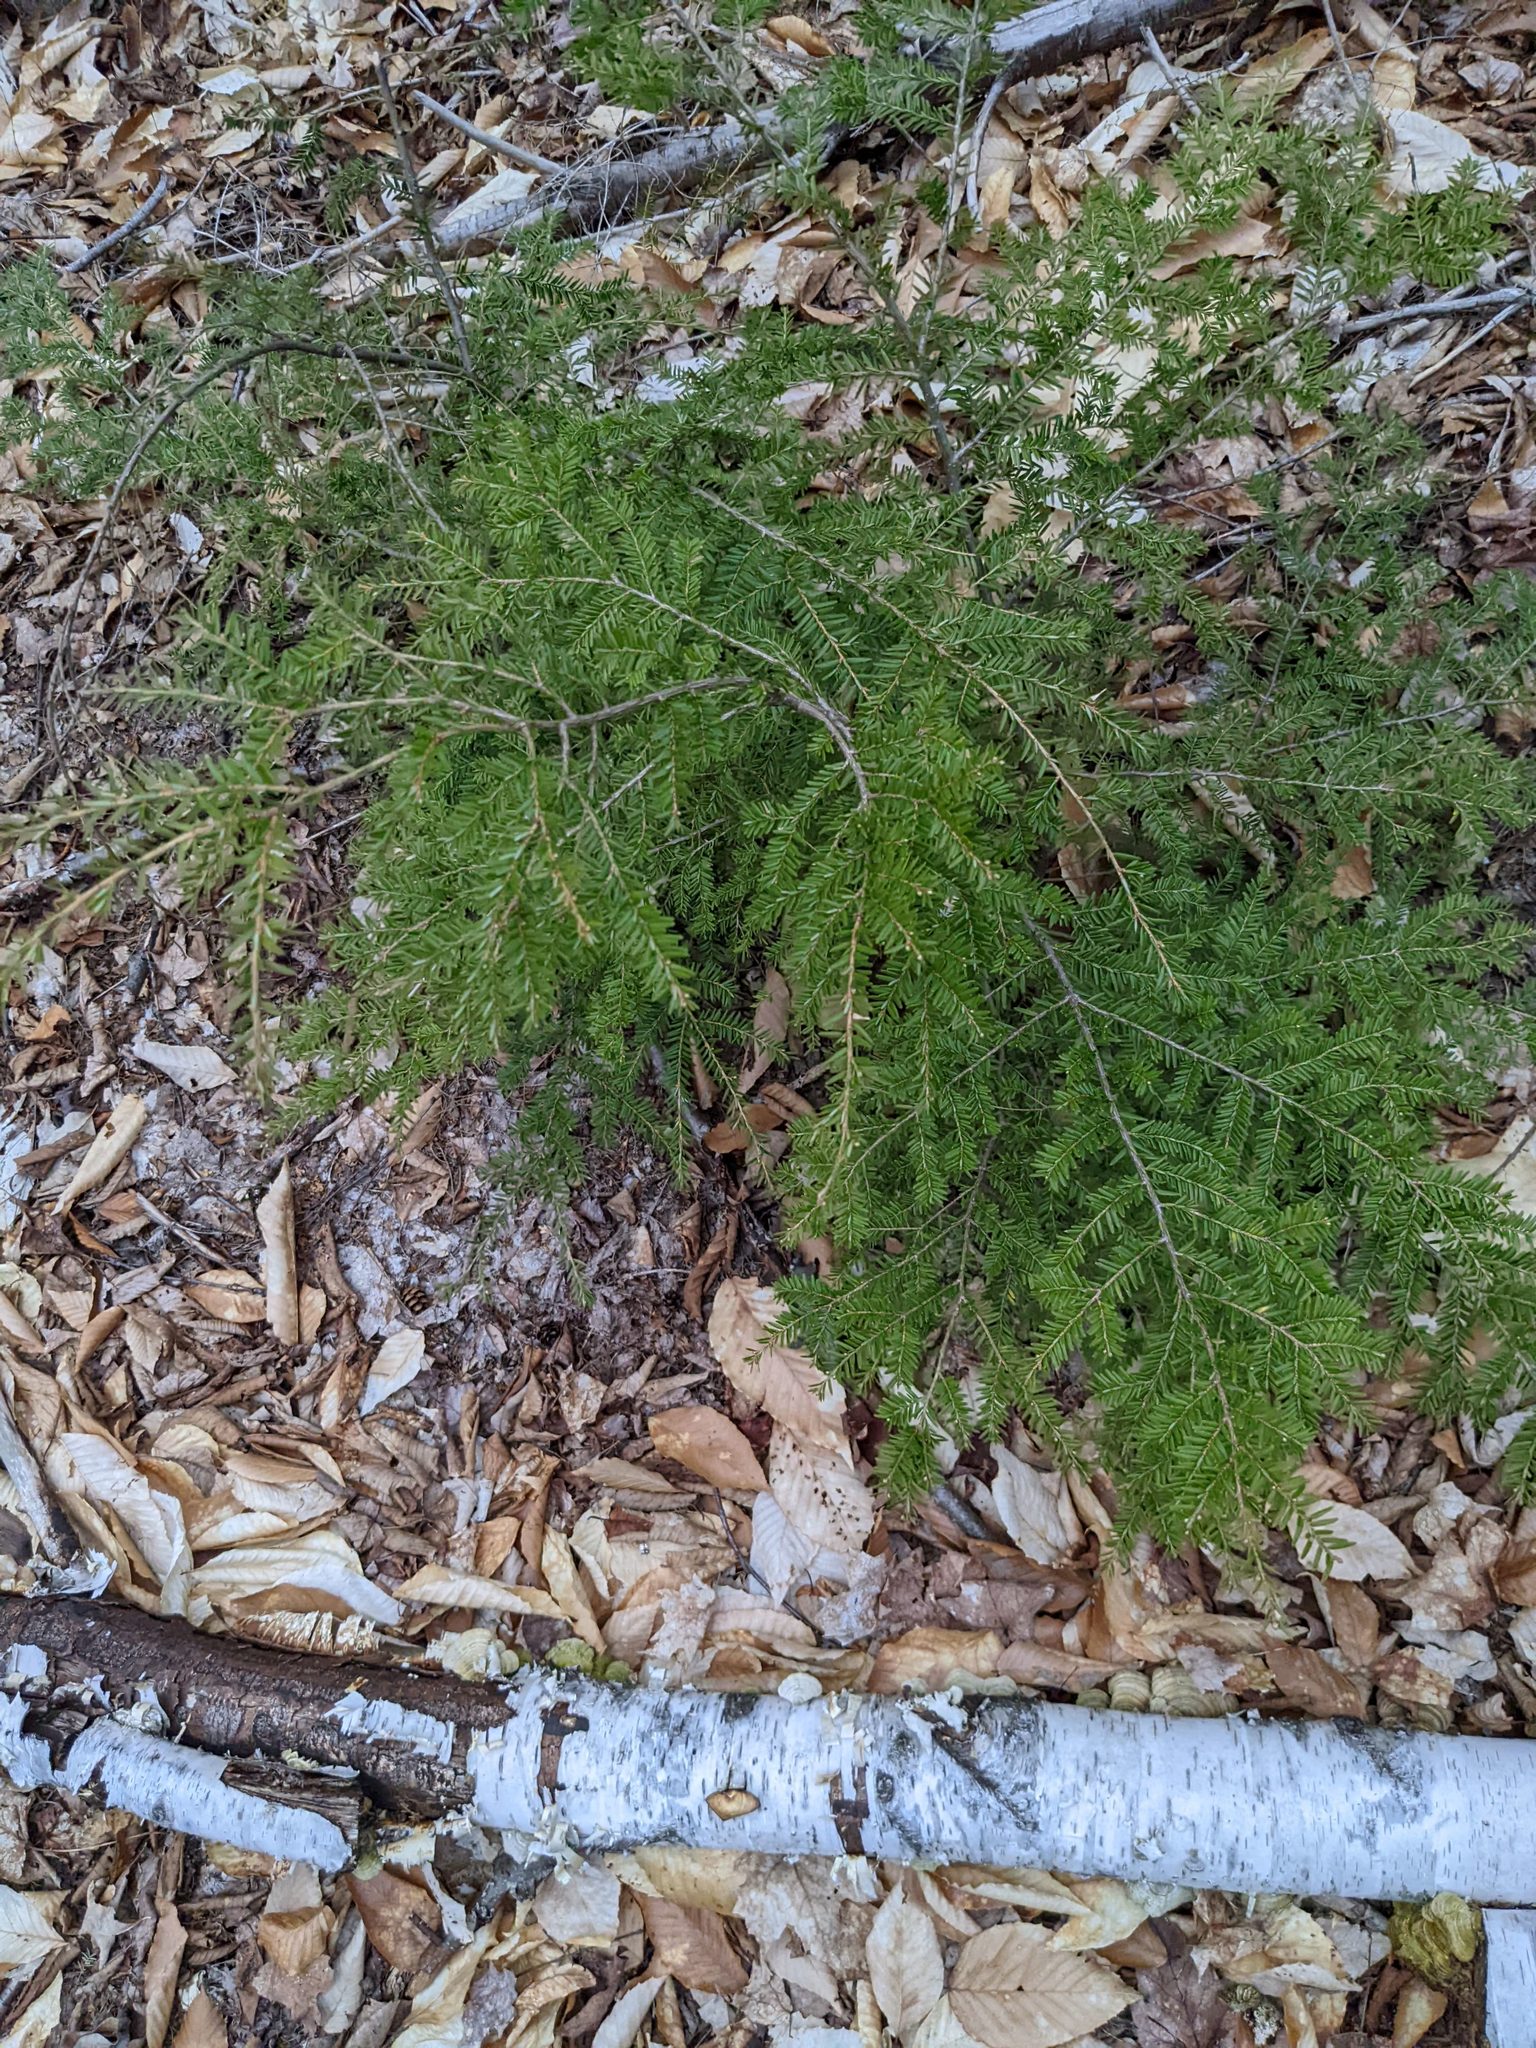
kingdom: Plantae
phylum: Tracheophyta
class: Magnoliopsida
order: Fagales
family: Fagaceae
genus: Fagus
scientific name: Fagus grandifolia
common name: American beech
